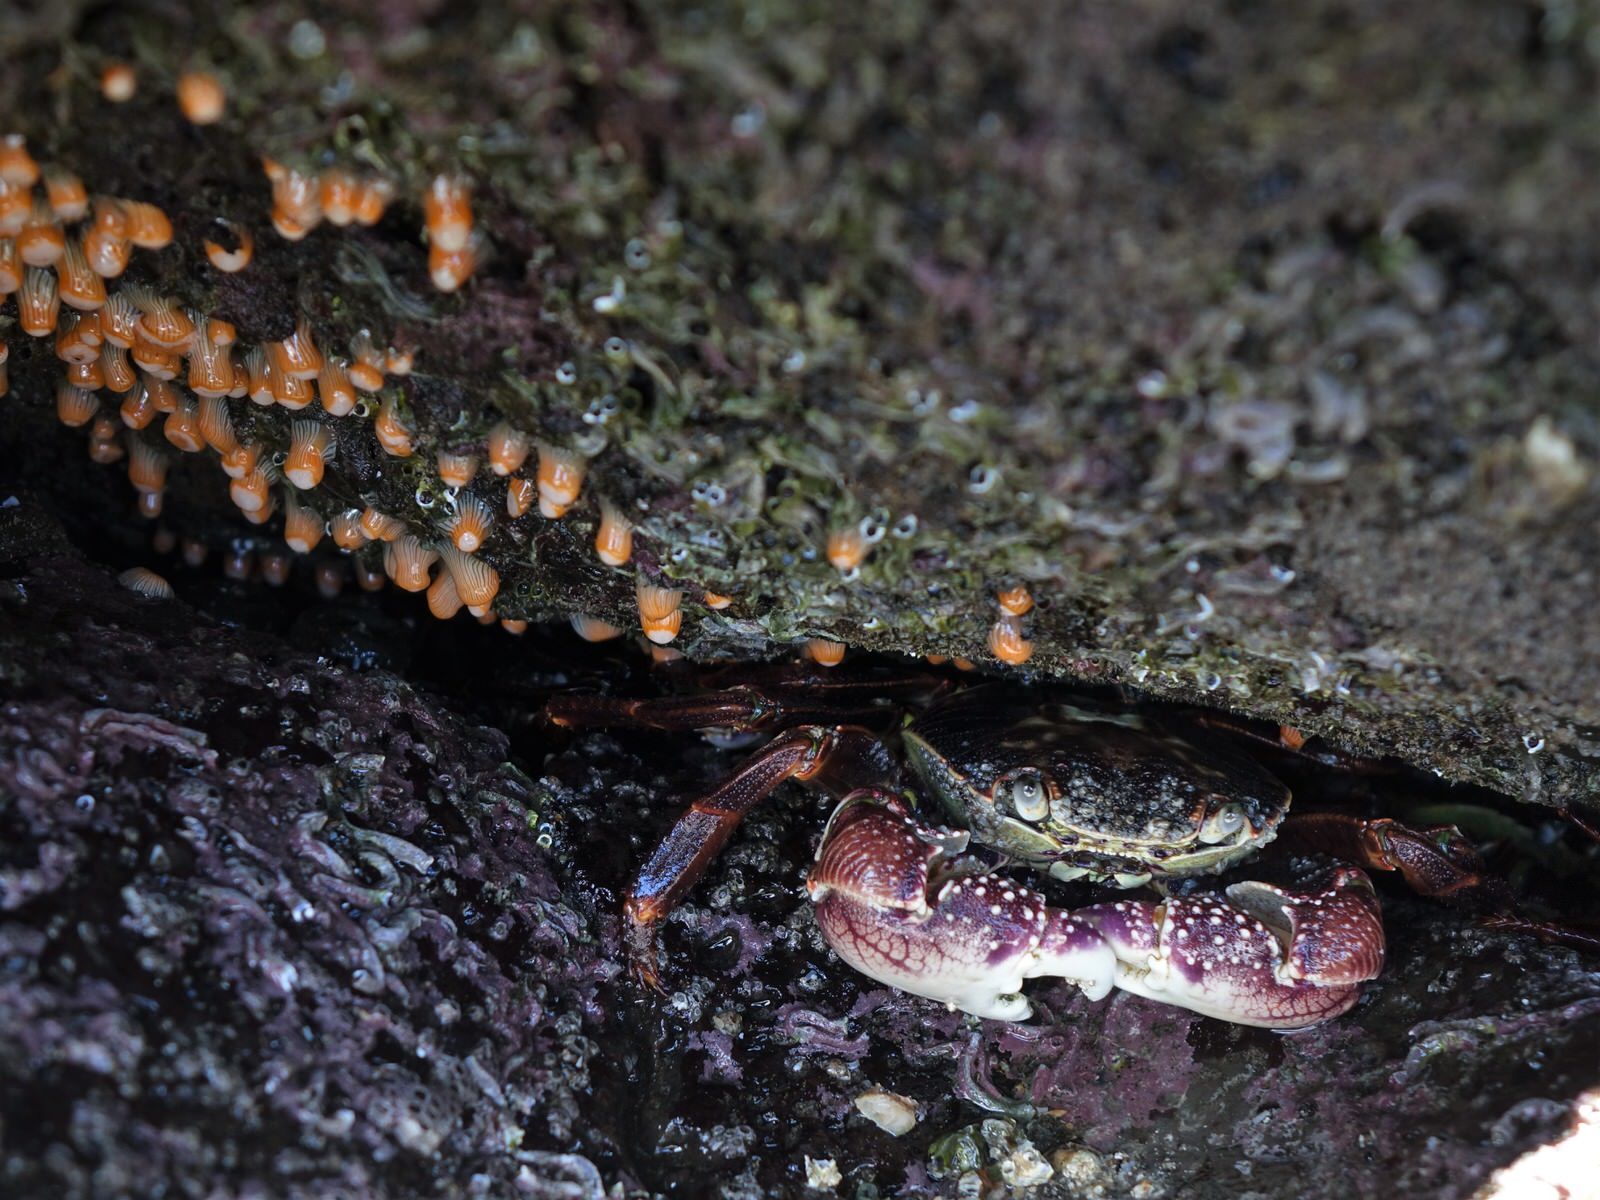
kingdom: Animalia
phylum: Arthropoda
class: Malacostraca
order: Decapoda
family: Grapsidae
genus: Leptograpsus
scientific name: Leptograpsus variegatus
